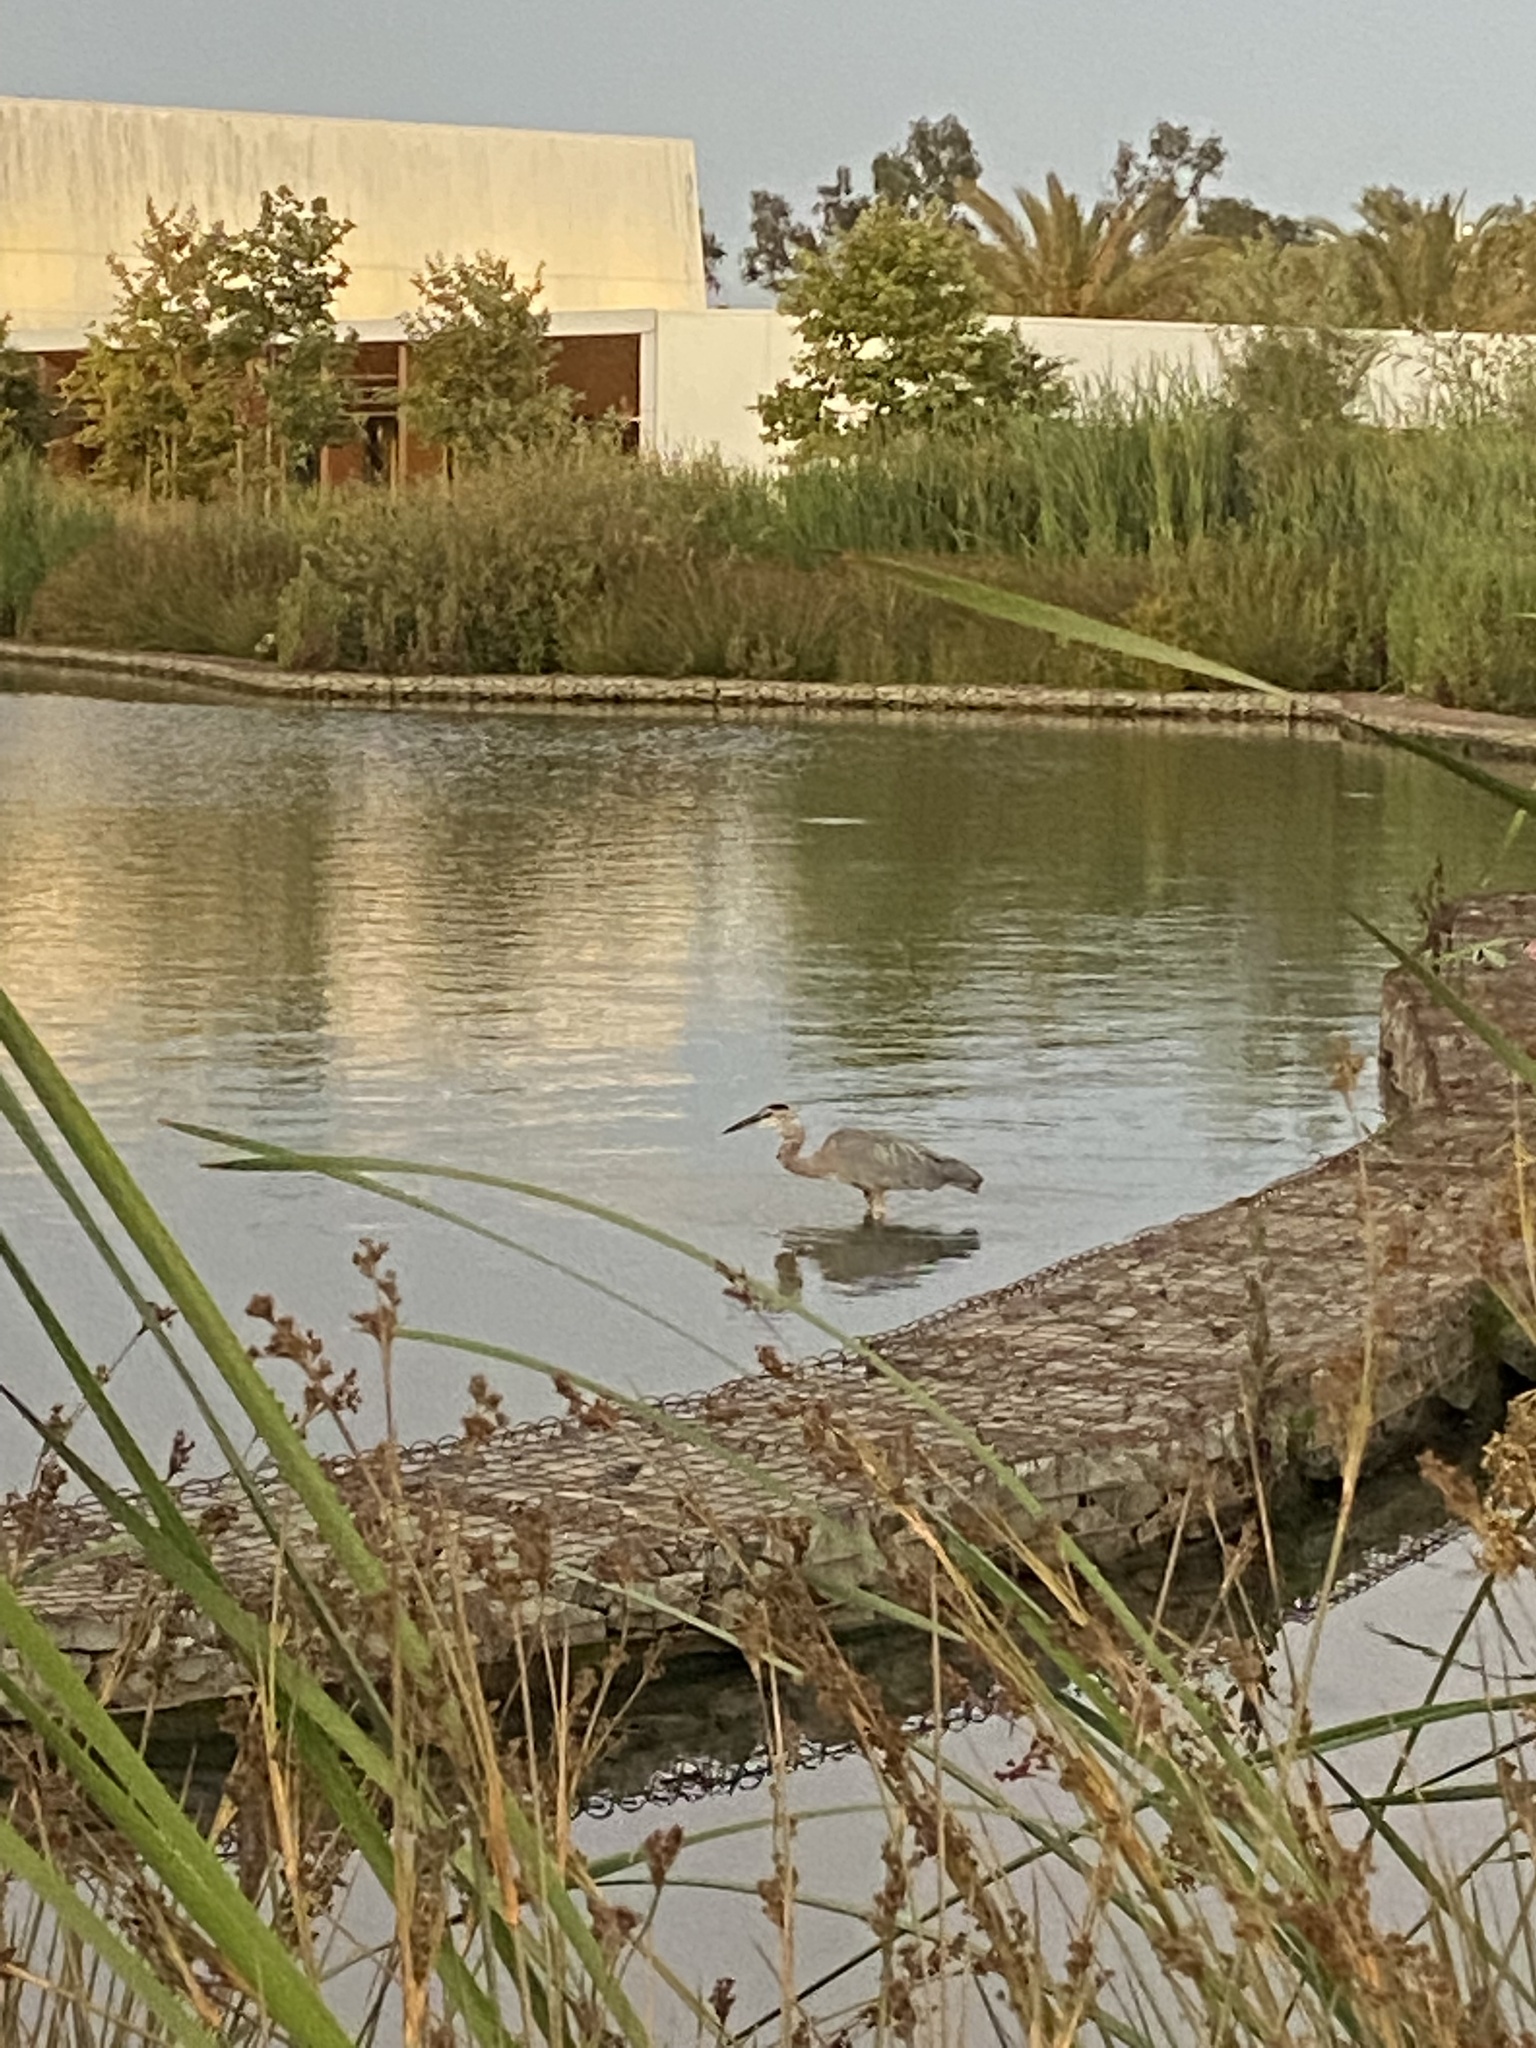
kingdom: Animalia
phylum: Chordata
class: Aves
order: Pelecaniformes
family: Ardeidae
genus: Ardea
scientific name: Ardea herodias
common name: Great blue heron
